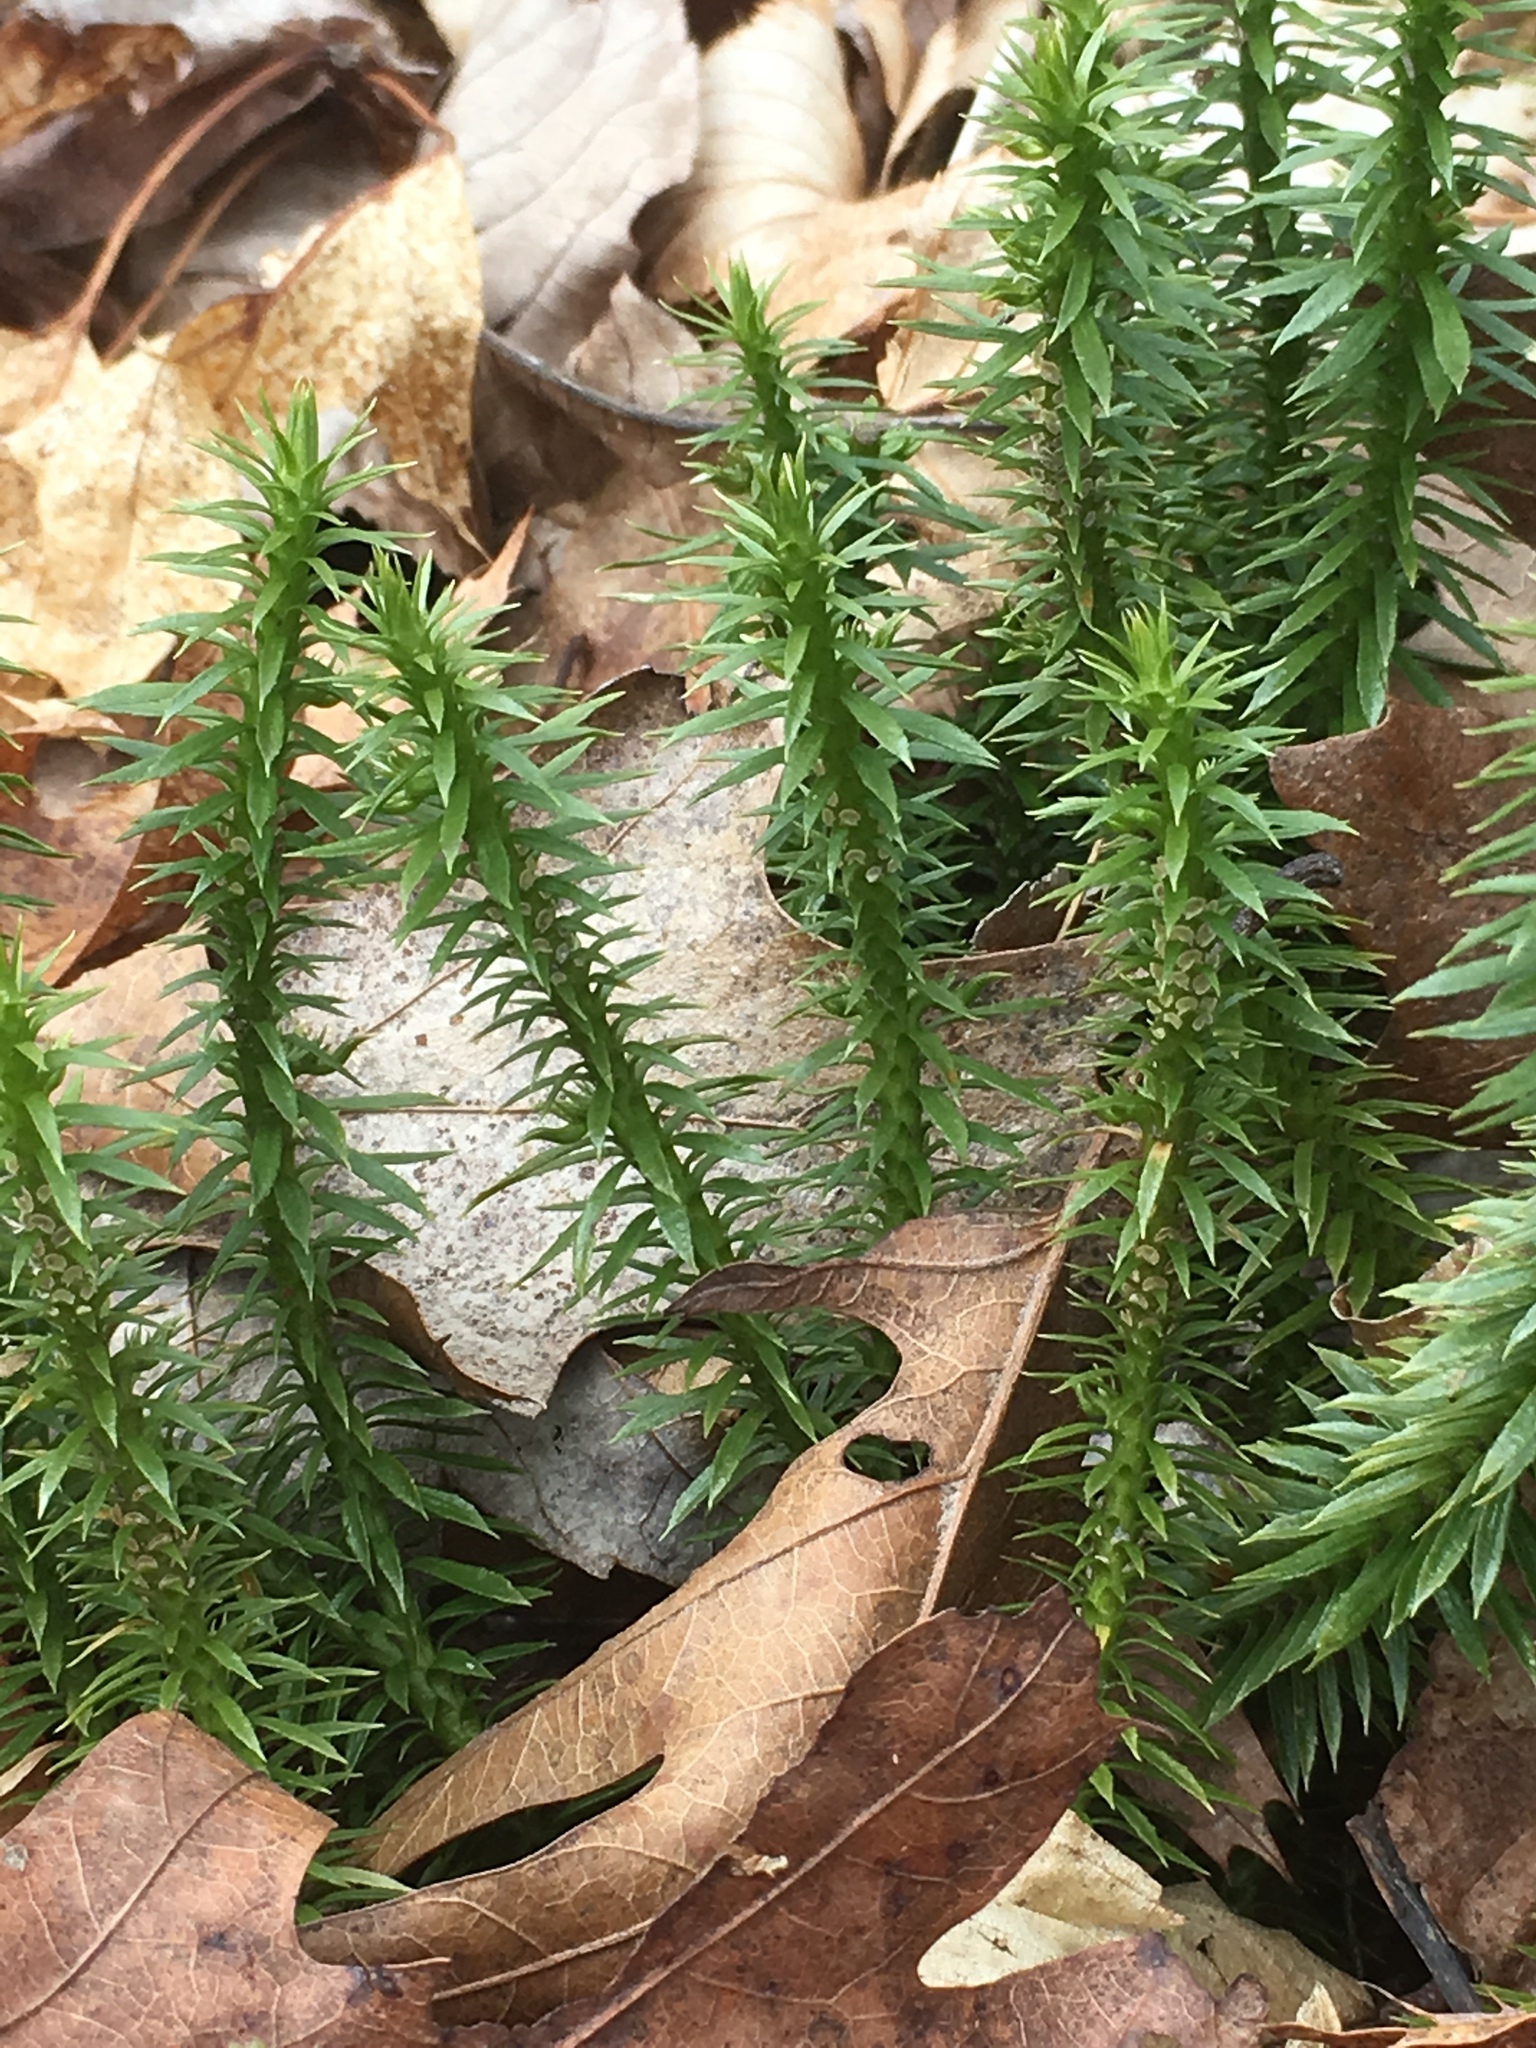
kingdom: Plantae
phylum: Tracheophyta
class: Lycopodiopsida
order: Lycopodiales
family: Lycopodiaceae
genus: Huperzia
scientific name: Huperzia lucidula
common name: Shining clubmoss
